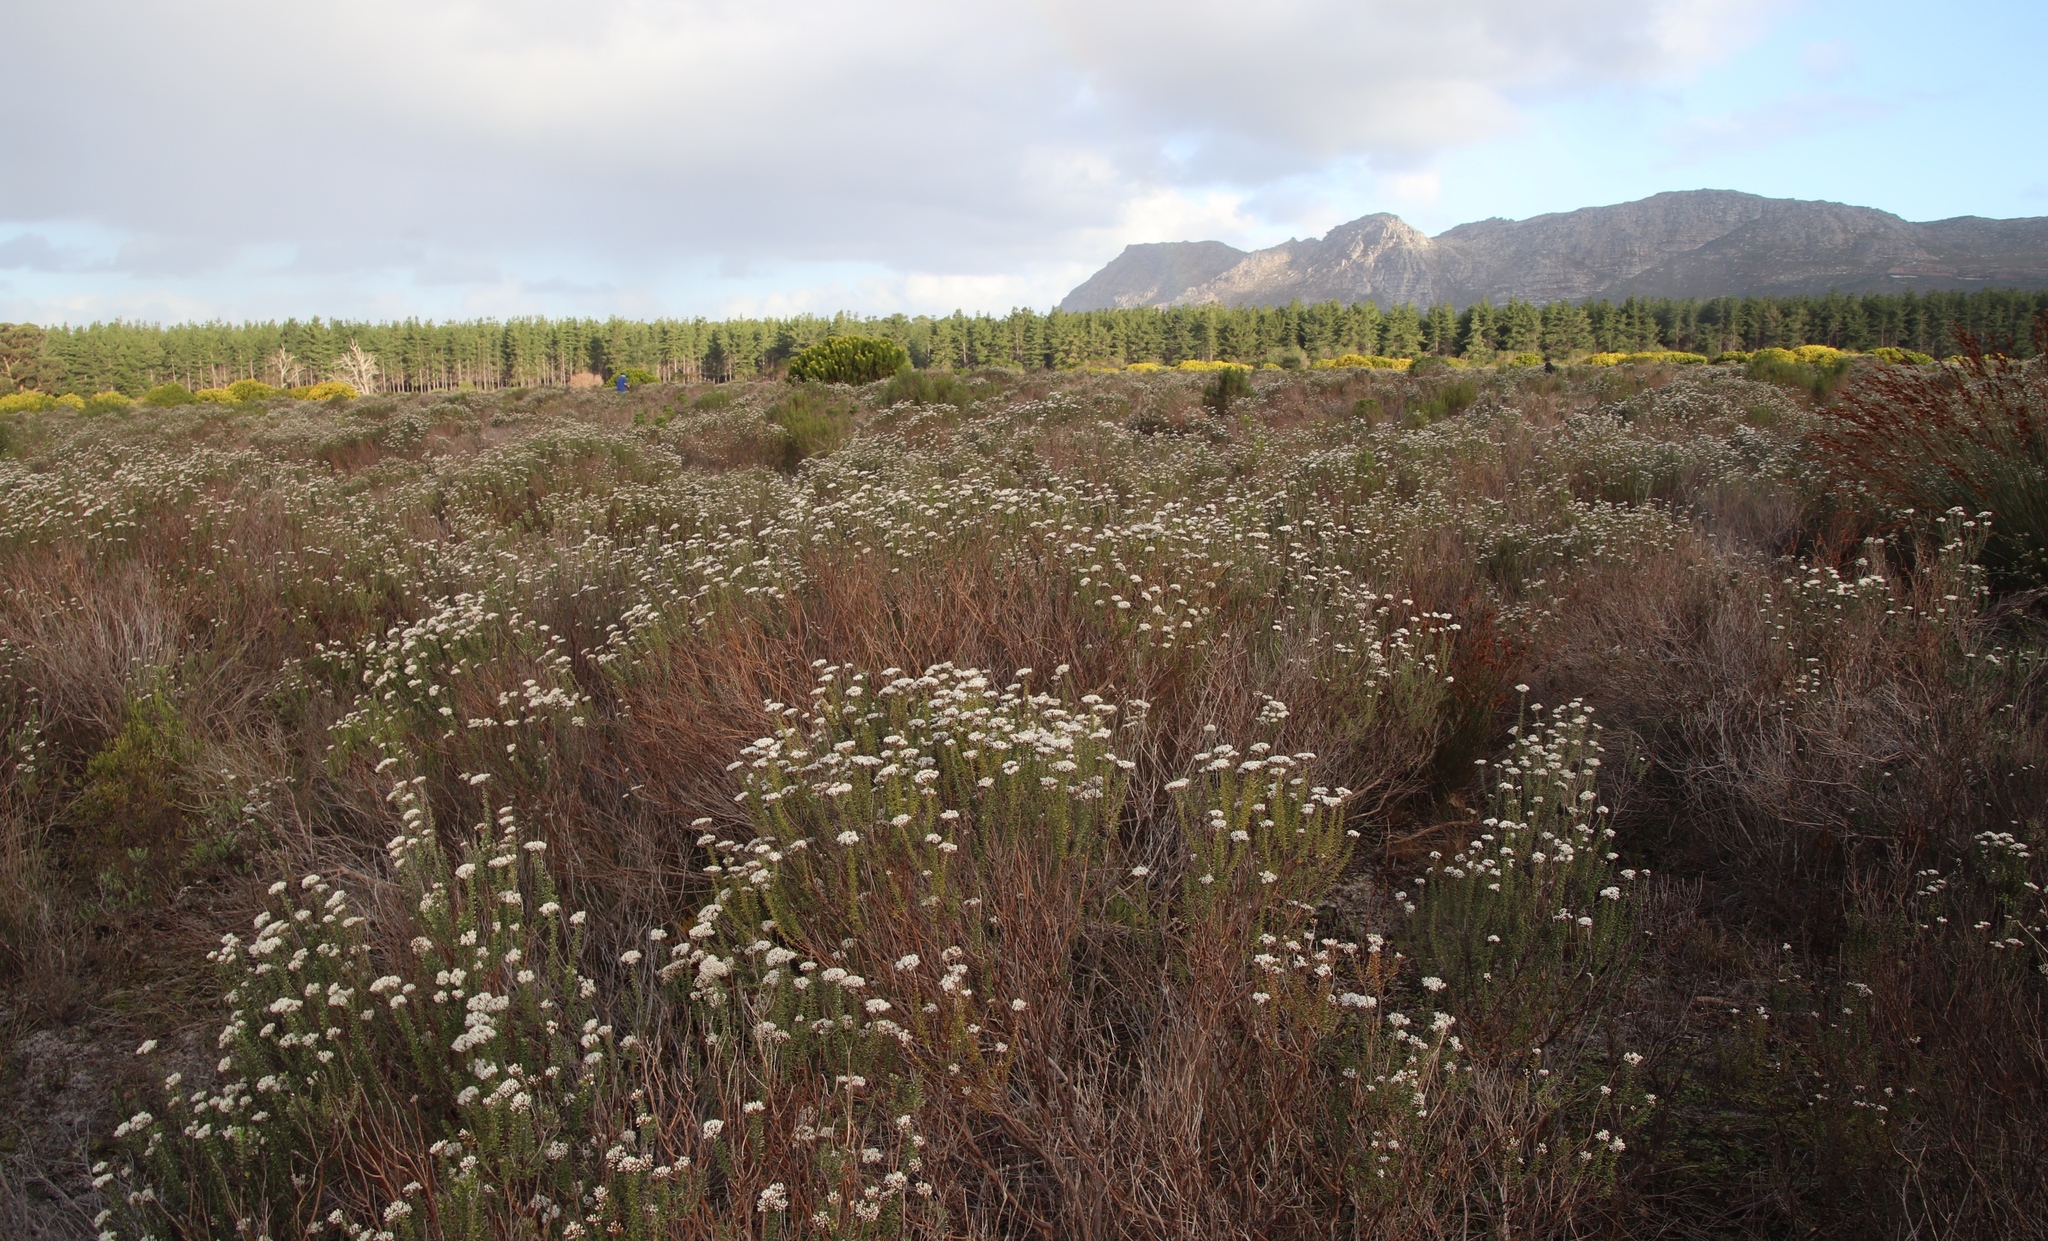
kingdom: Plantae
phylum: Tracheophyta
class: Magnoliopsida
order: Asterales
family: Asteraceae
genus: Metalasia
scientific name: Metalasia densa
